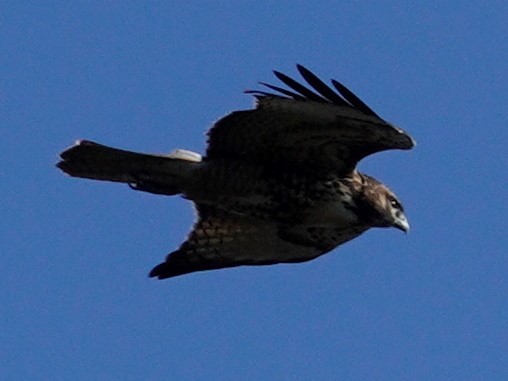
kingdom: Animalia
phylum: Chordata
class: Aves
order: Accipitriformes
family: Accipitridae
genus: Buteo
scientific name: Buteo jamaicensis
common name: Red-tailed hawk
